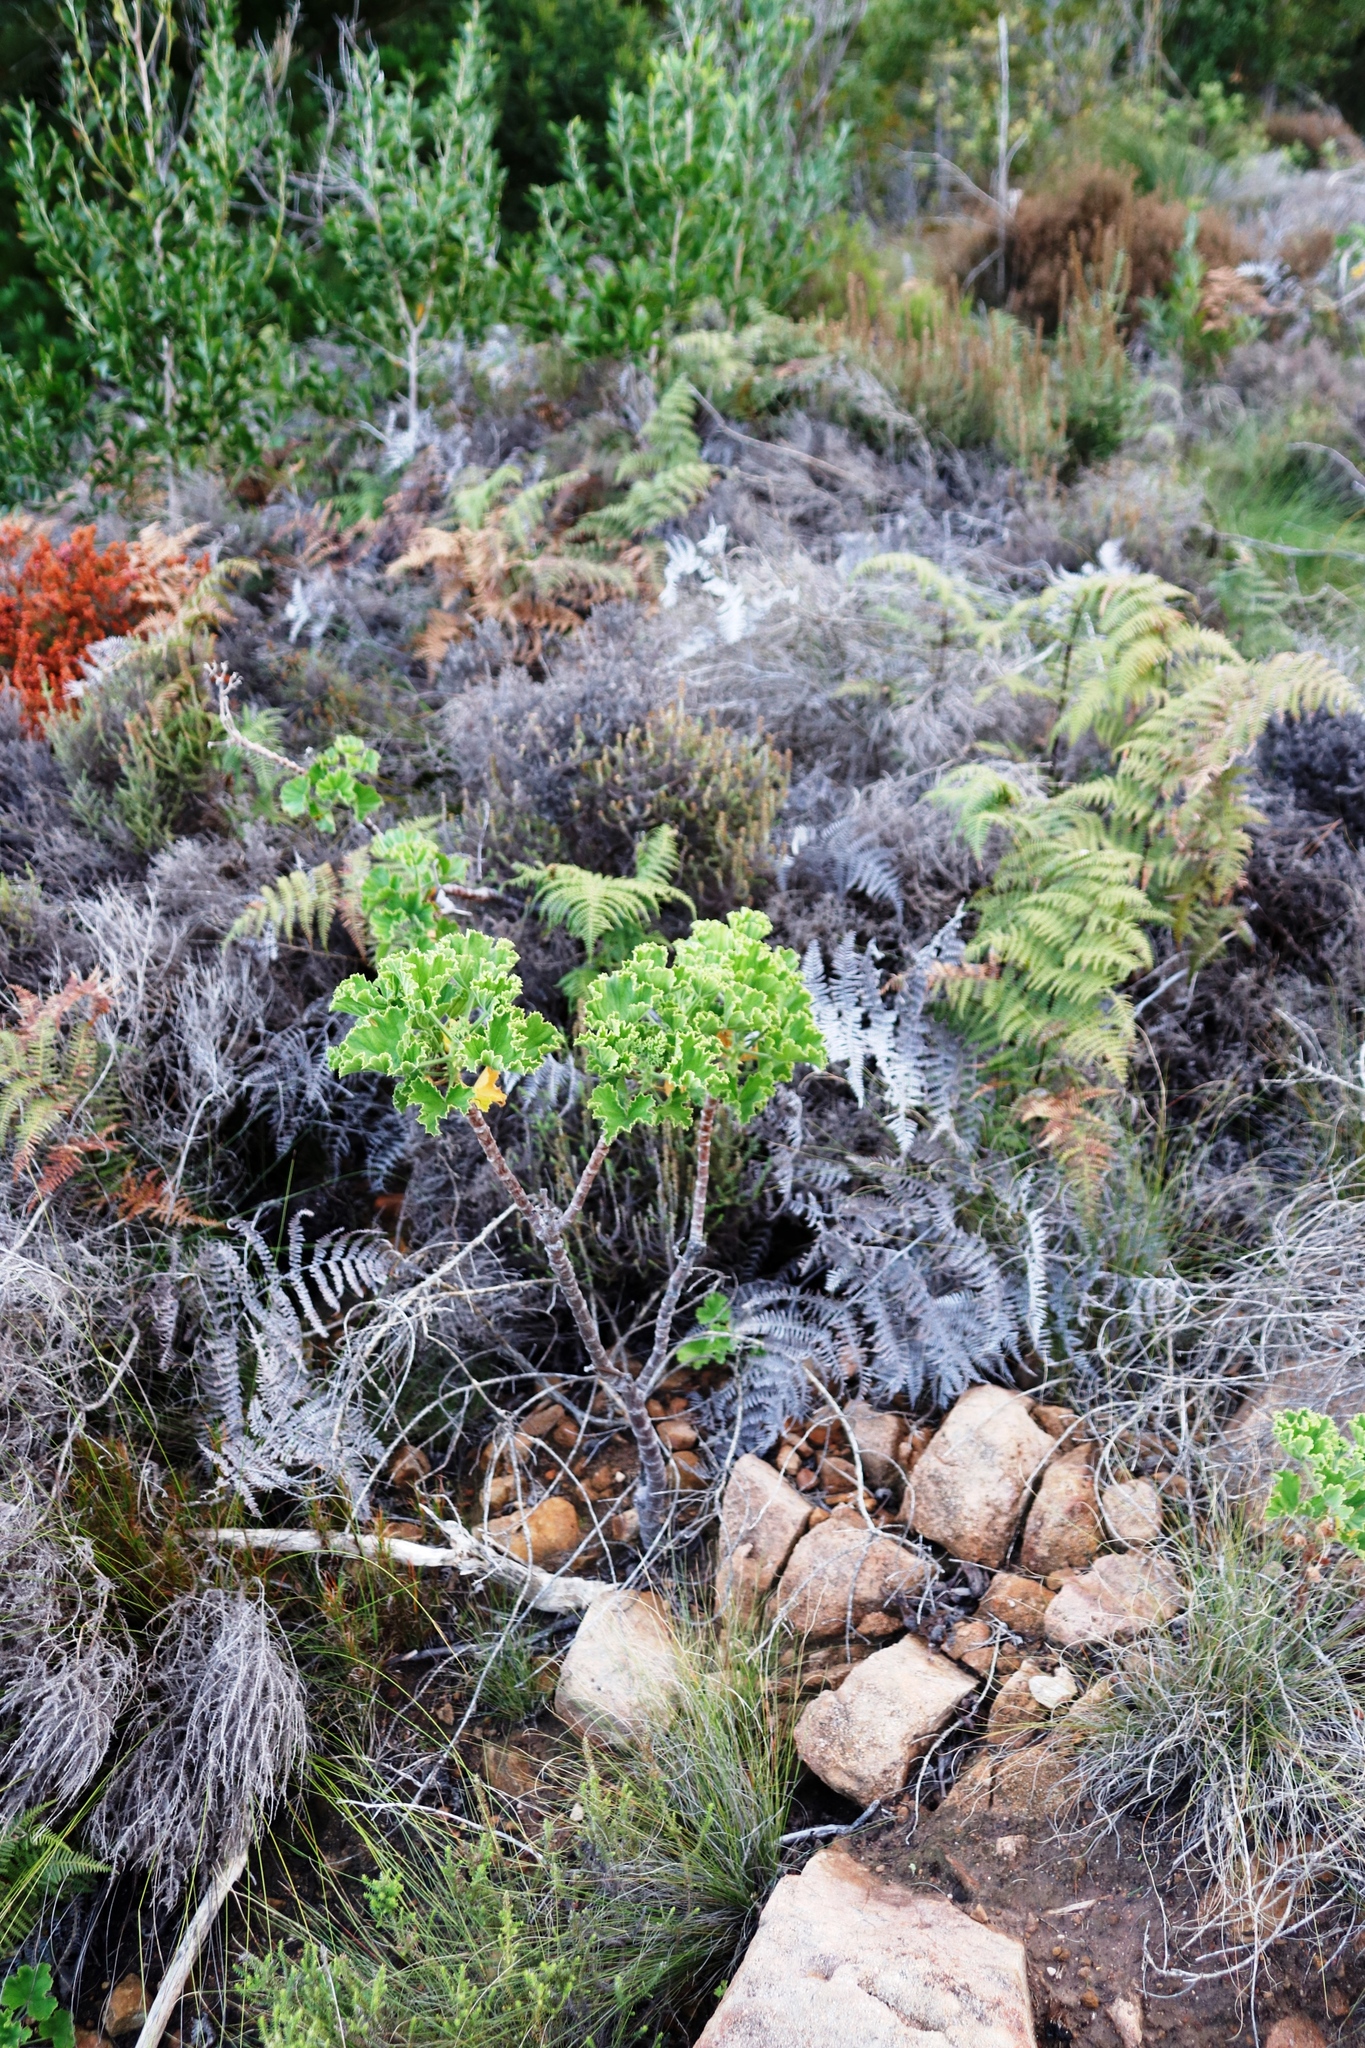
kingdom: Plantae
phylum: Tracheophyta
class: Magnoliopsida
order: Geraniales
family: Geraniaceae
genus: Pelargonium
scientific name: Pelargonium cucullatum
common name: Tree pelargonium
